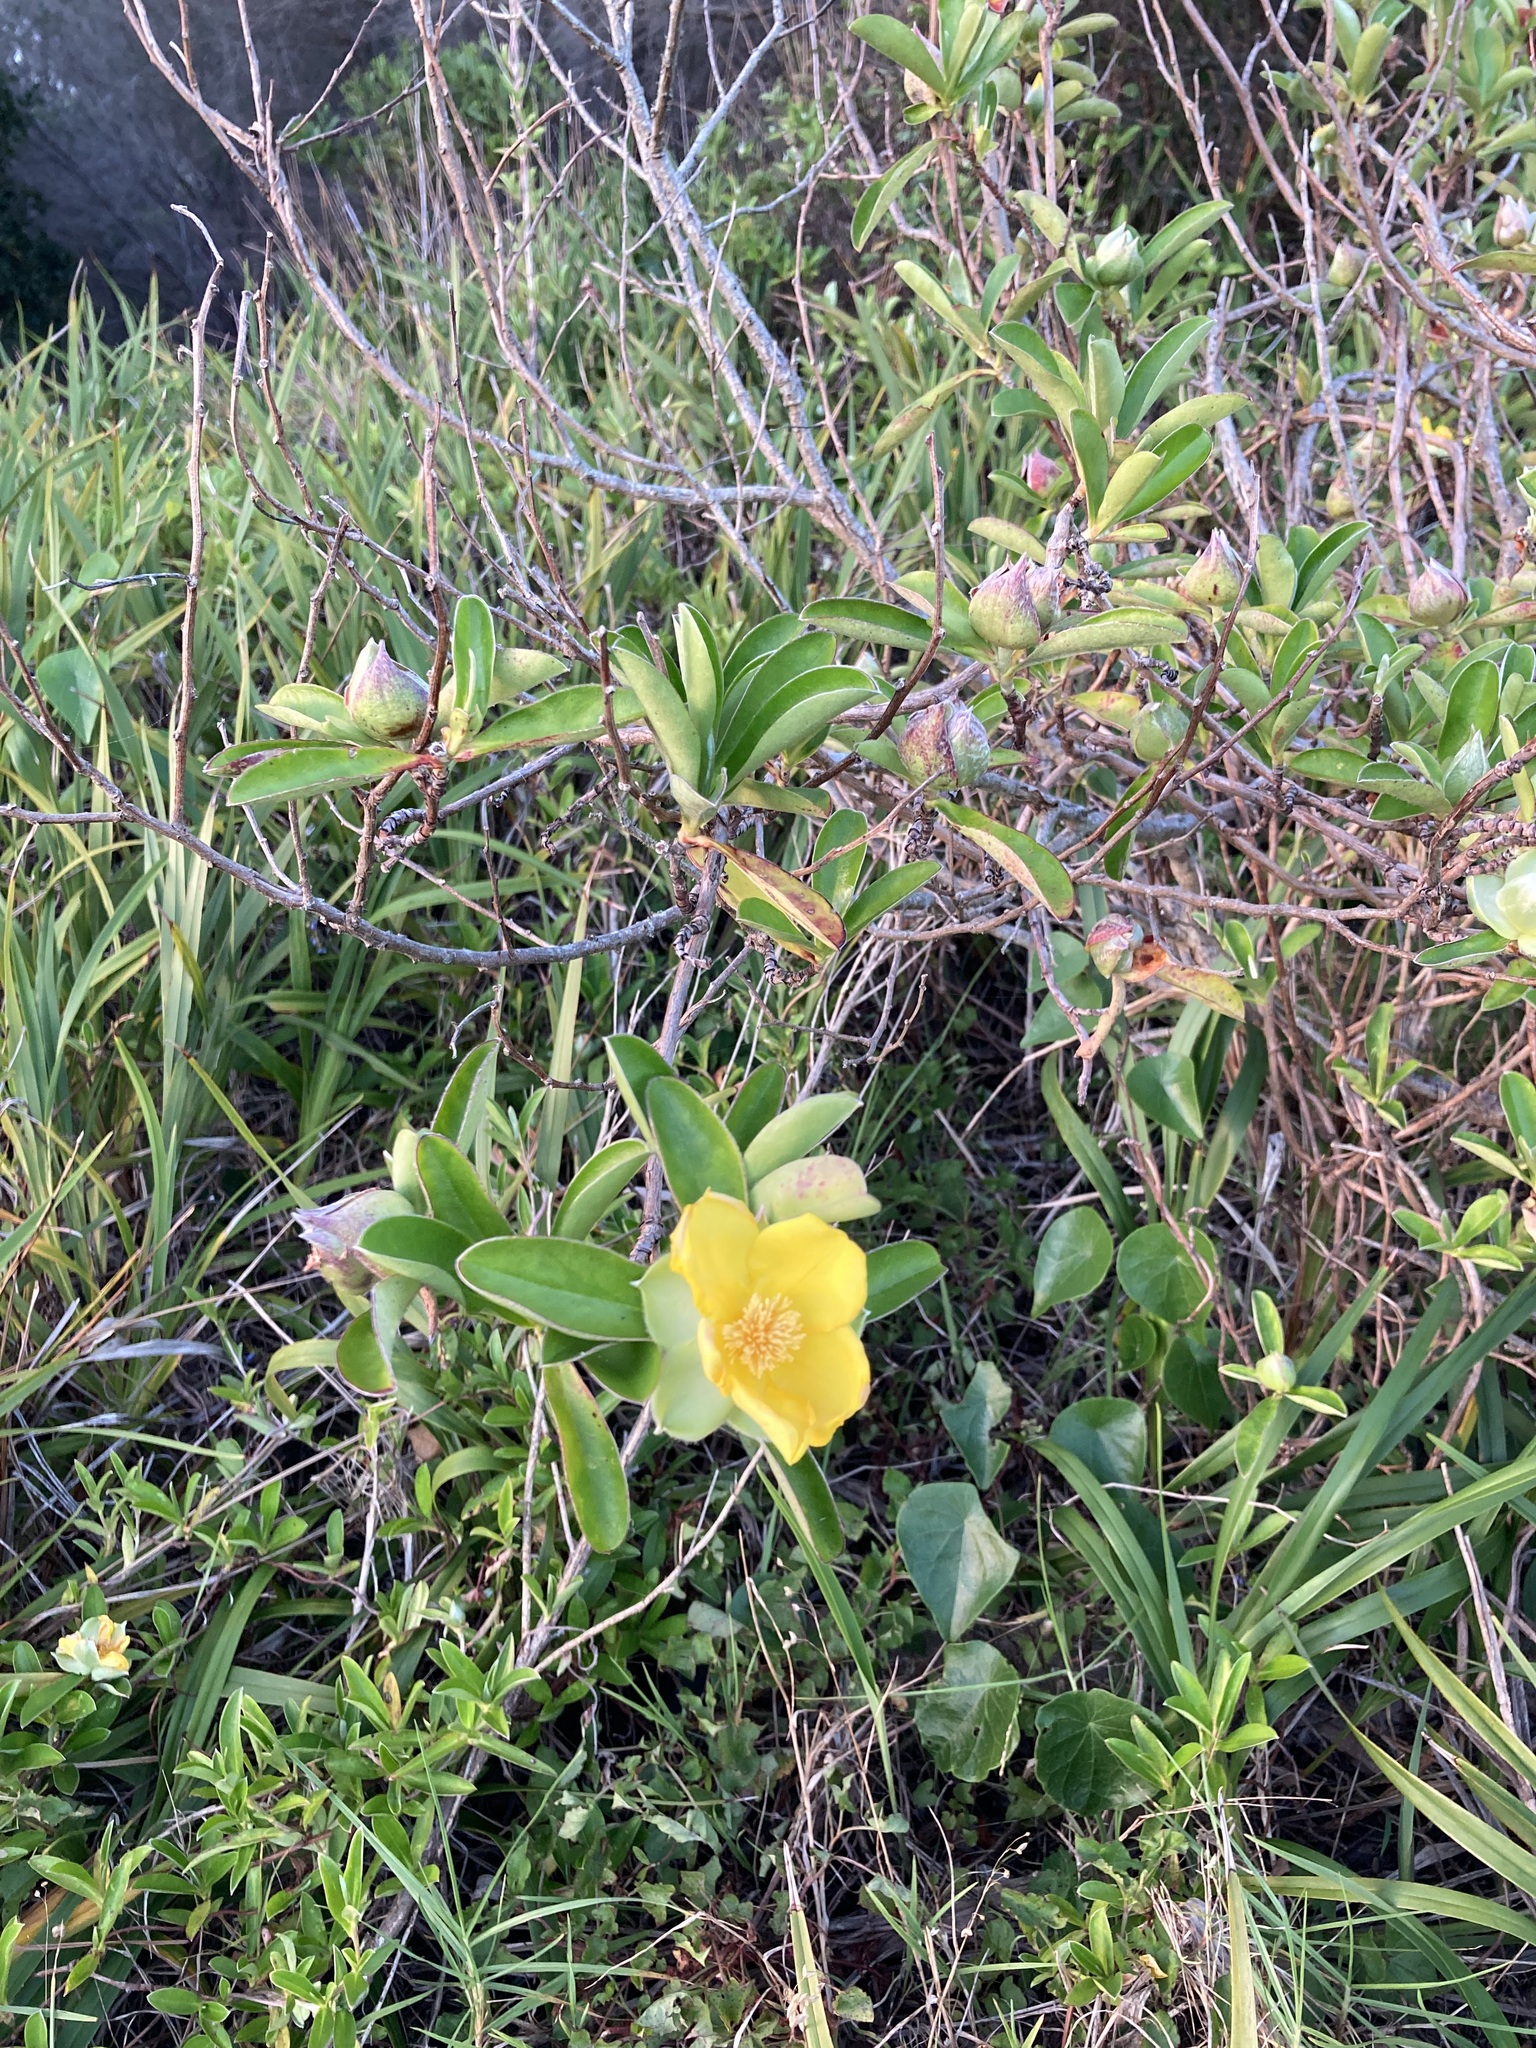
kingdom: Plantae
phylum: Tracheophyta
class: Magnoliopsida
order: Dilleniales
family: Dilleniaceae
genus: Hibbertia
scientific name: Hibbertia scandens
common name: Climbing guinea-flower
